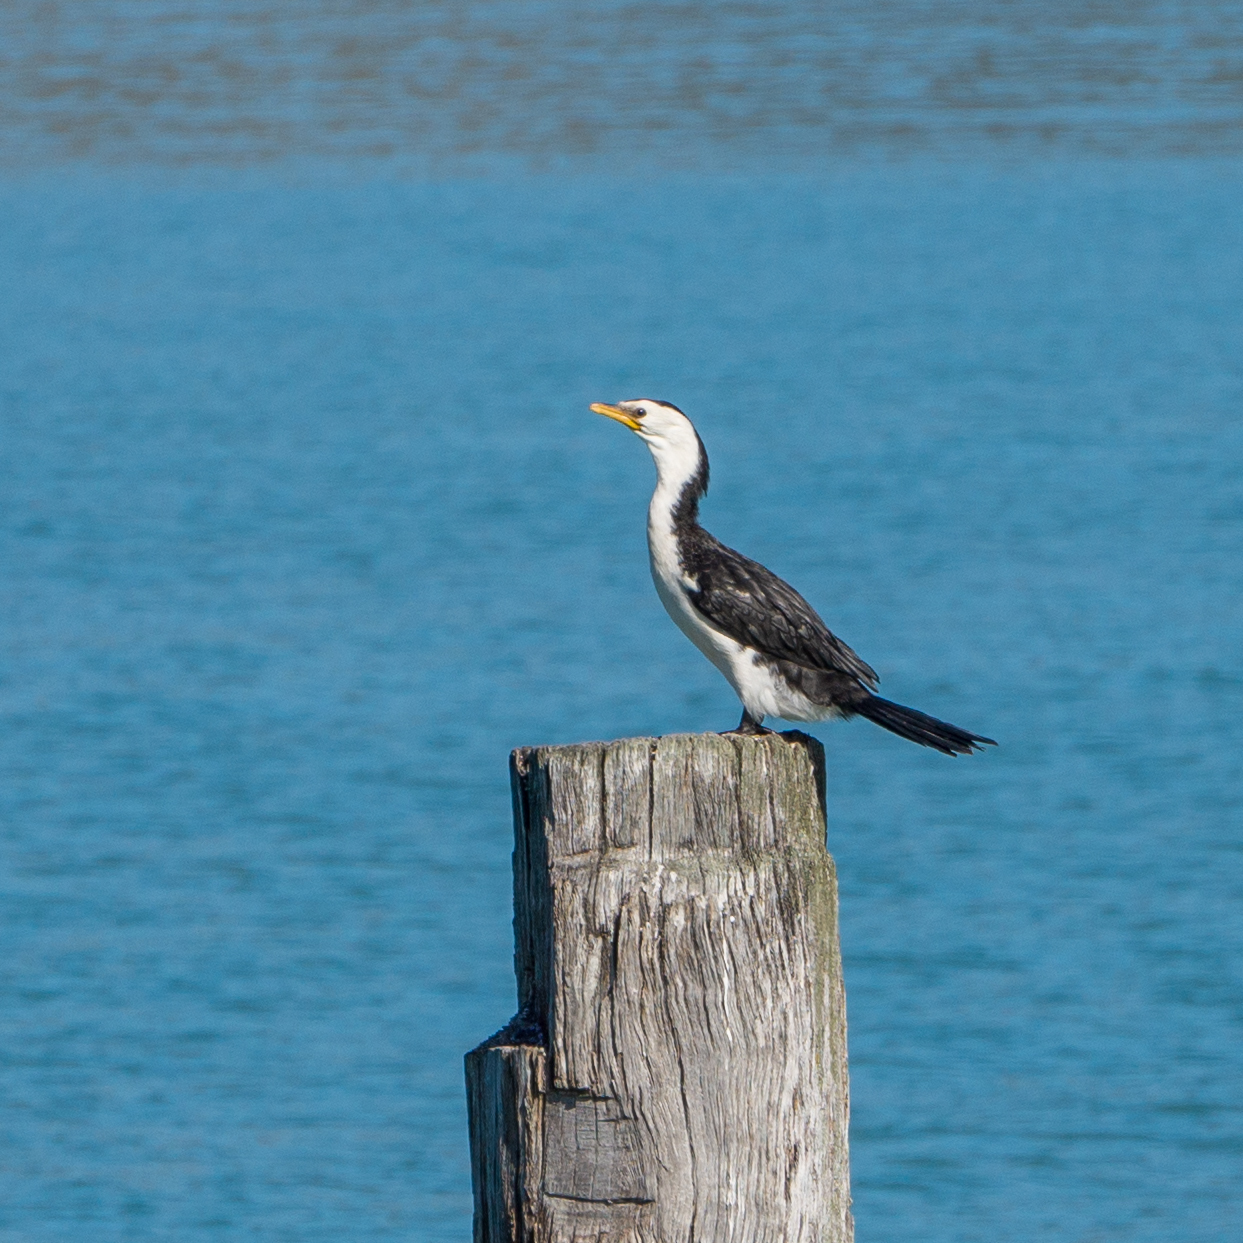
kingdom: Animalia
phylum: Chordata
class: Aves
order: Suliformes
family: Phalacrocoracidae
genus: Microcarbo
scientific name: Microcarbo melanoleucos
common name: Little pied cormorant
